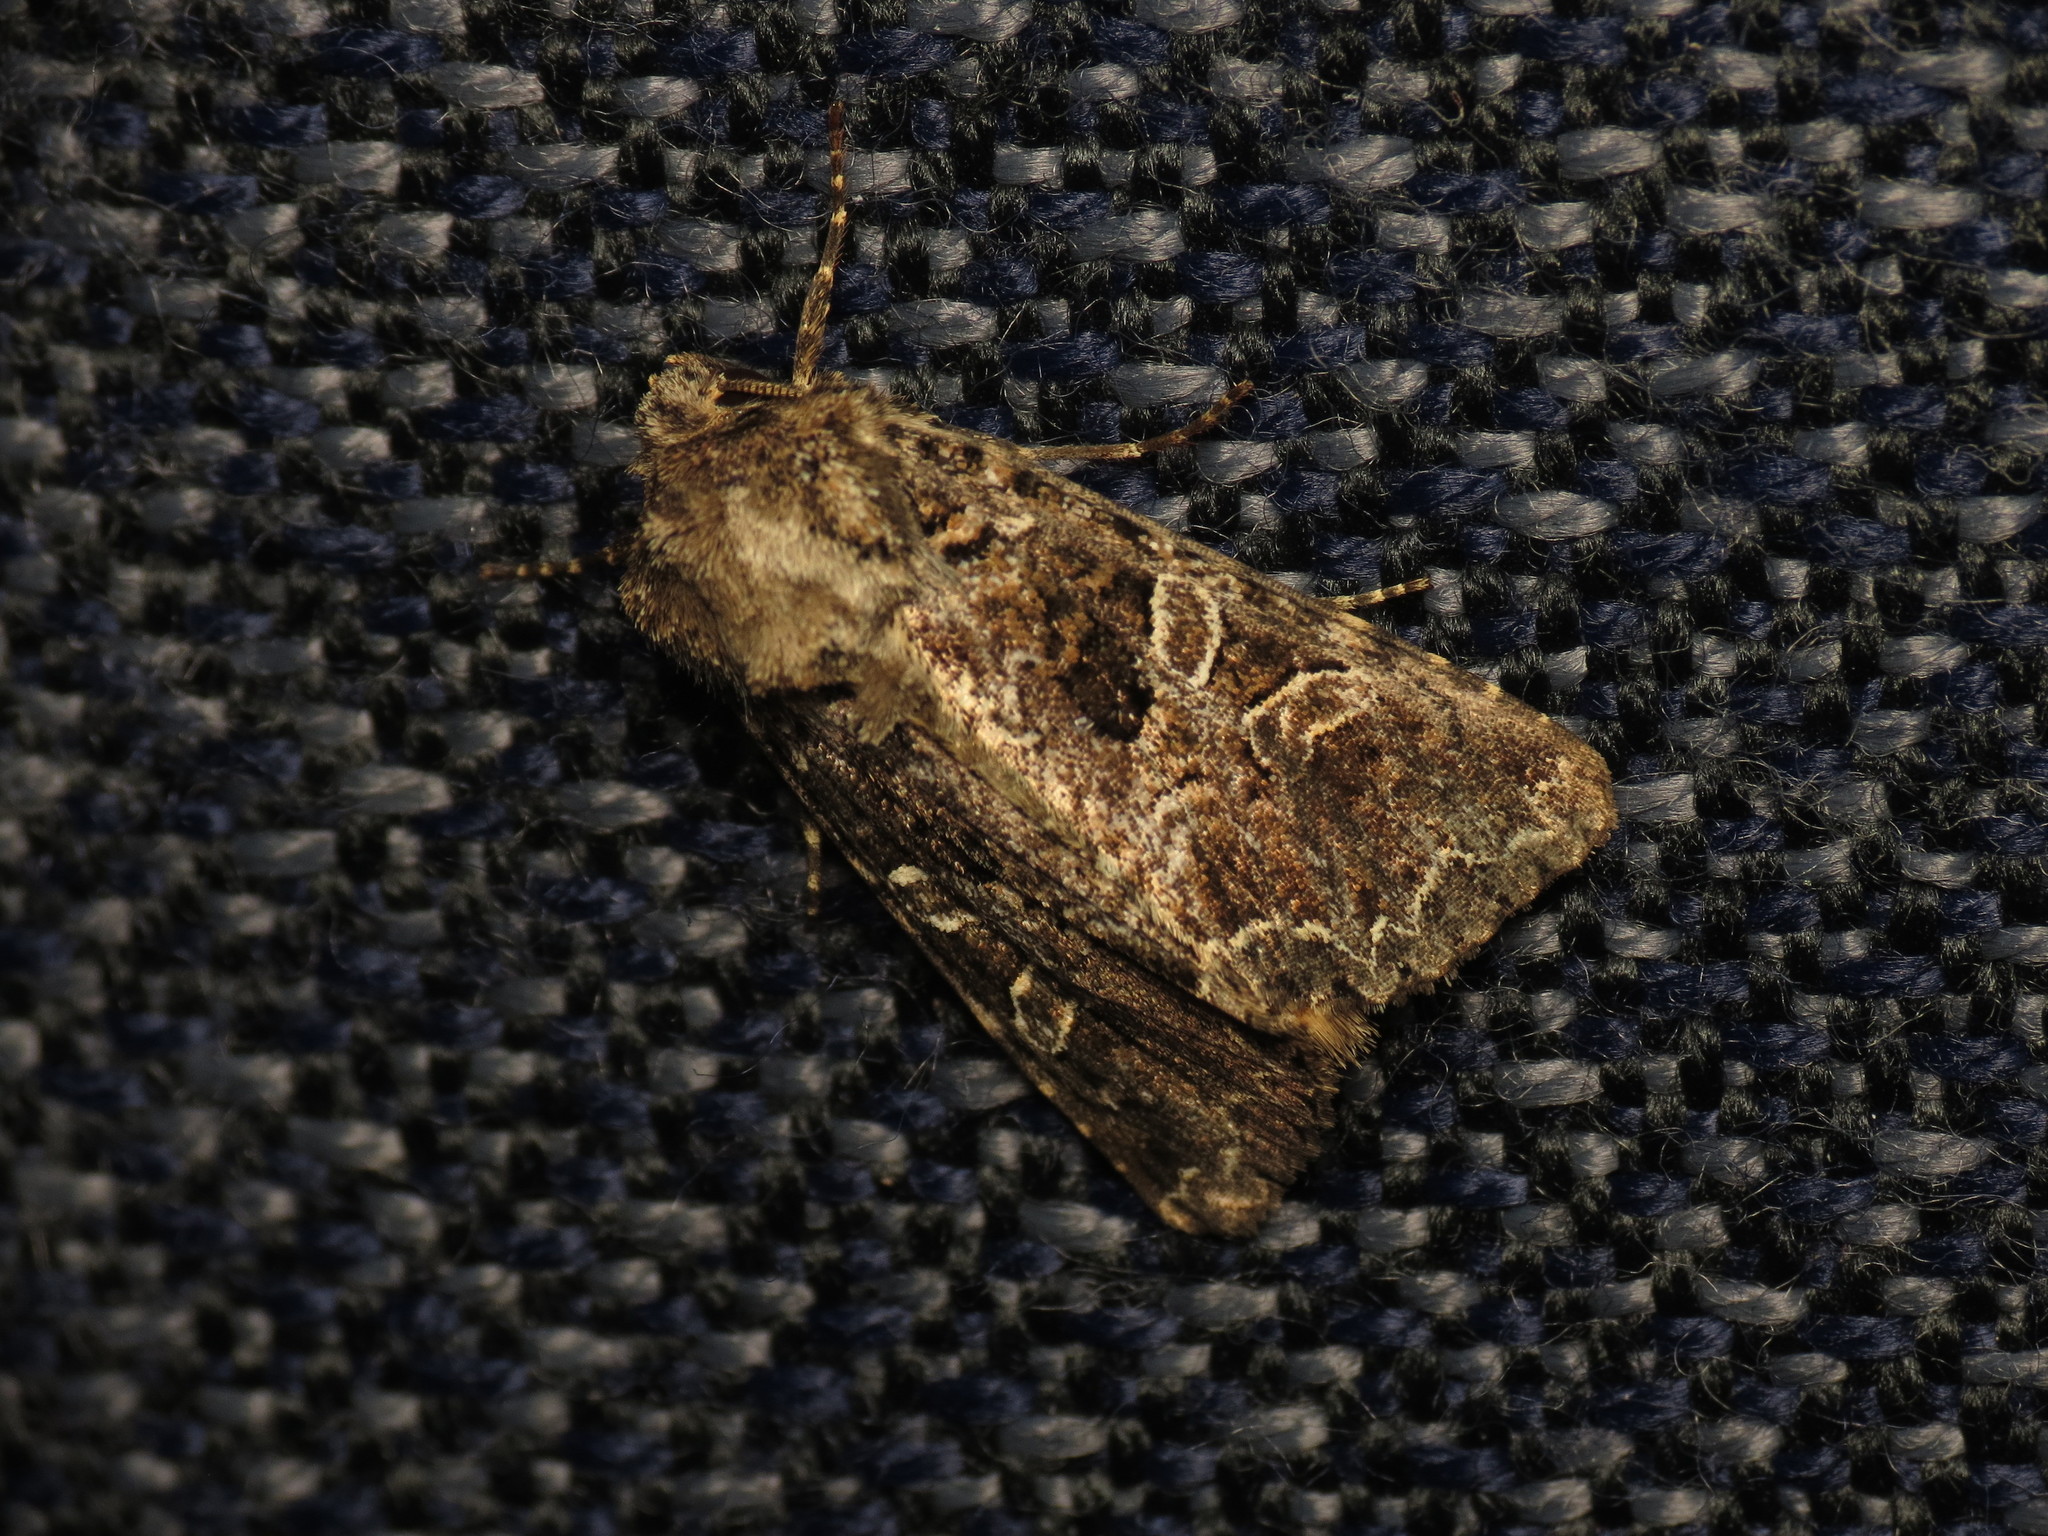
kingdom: Animalia
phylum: Arthropoda
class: Insecta
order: Lepidoptera
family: Noctuidae
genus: Hadena
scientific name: Hadena bicruris
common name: Lychnis
